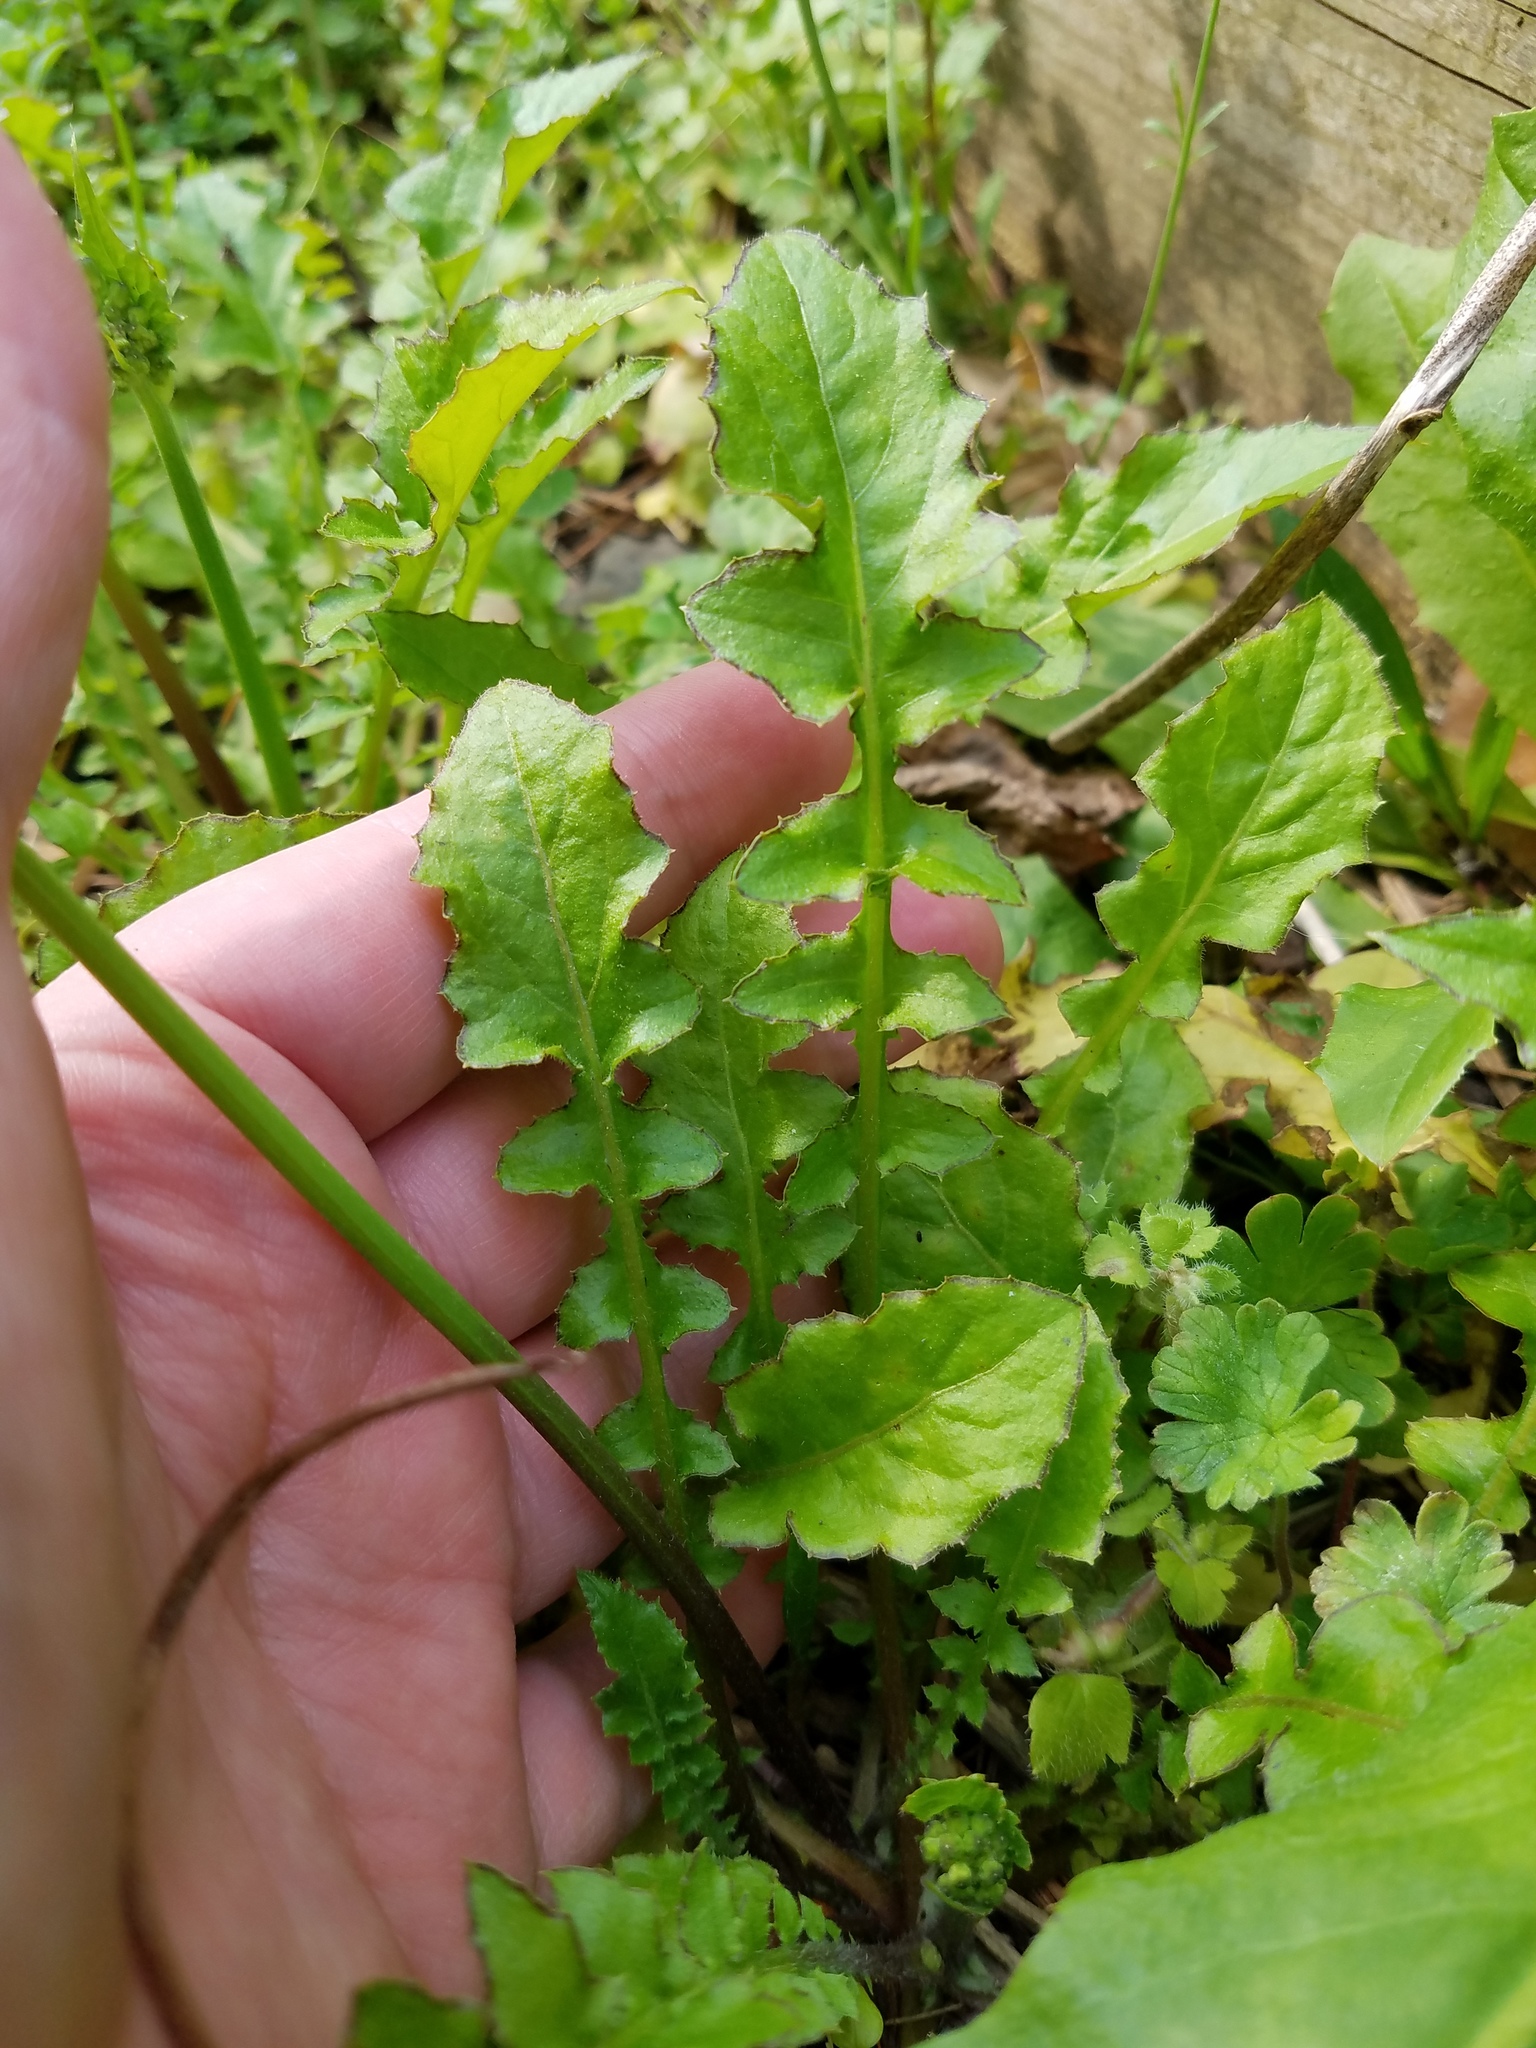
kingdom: Plantae
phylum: Tracheophyta
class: Magnoliopsida
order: Asterales
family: Asteraceae
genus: Youngia
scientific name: Youngia japonica
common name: Oriental false hawksbeard
